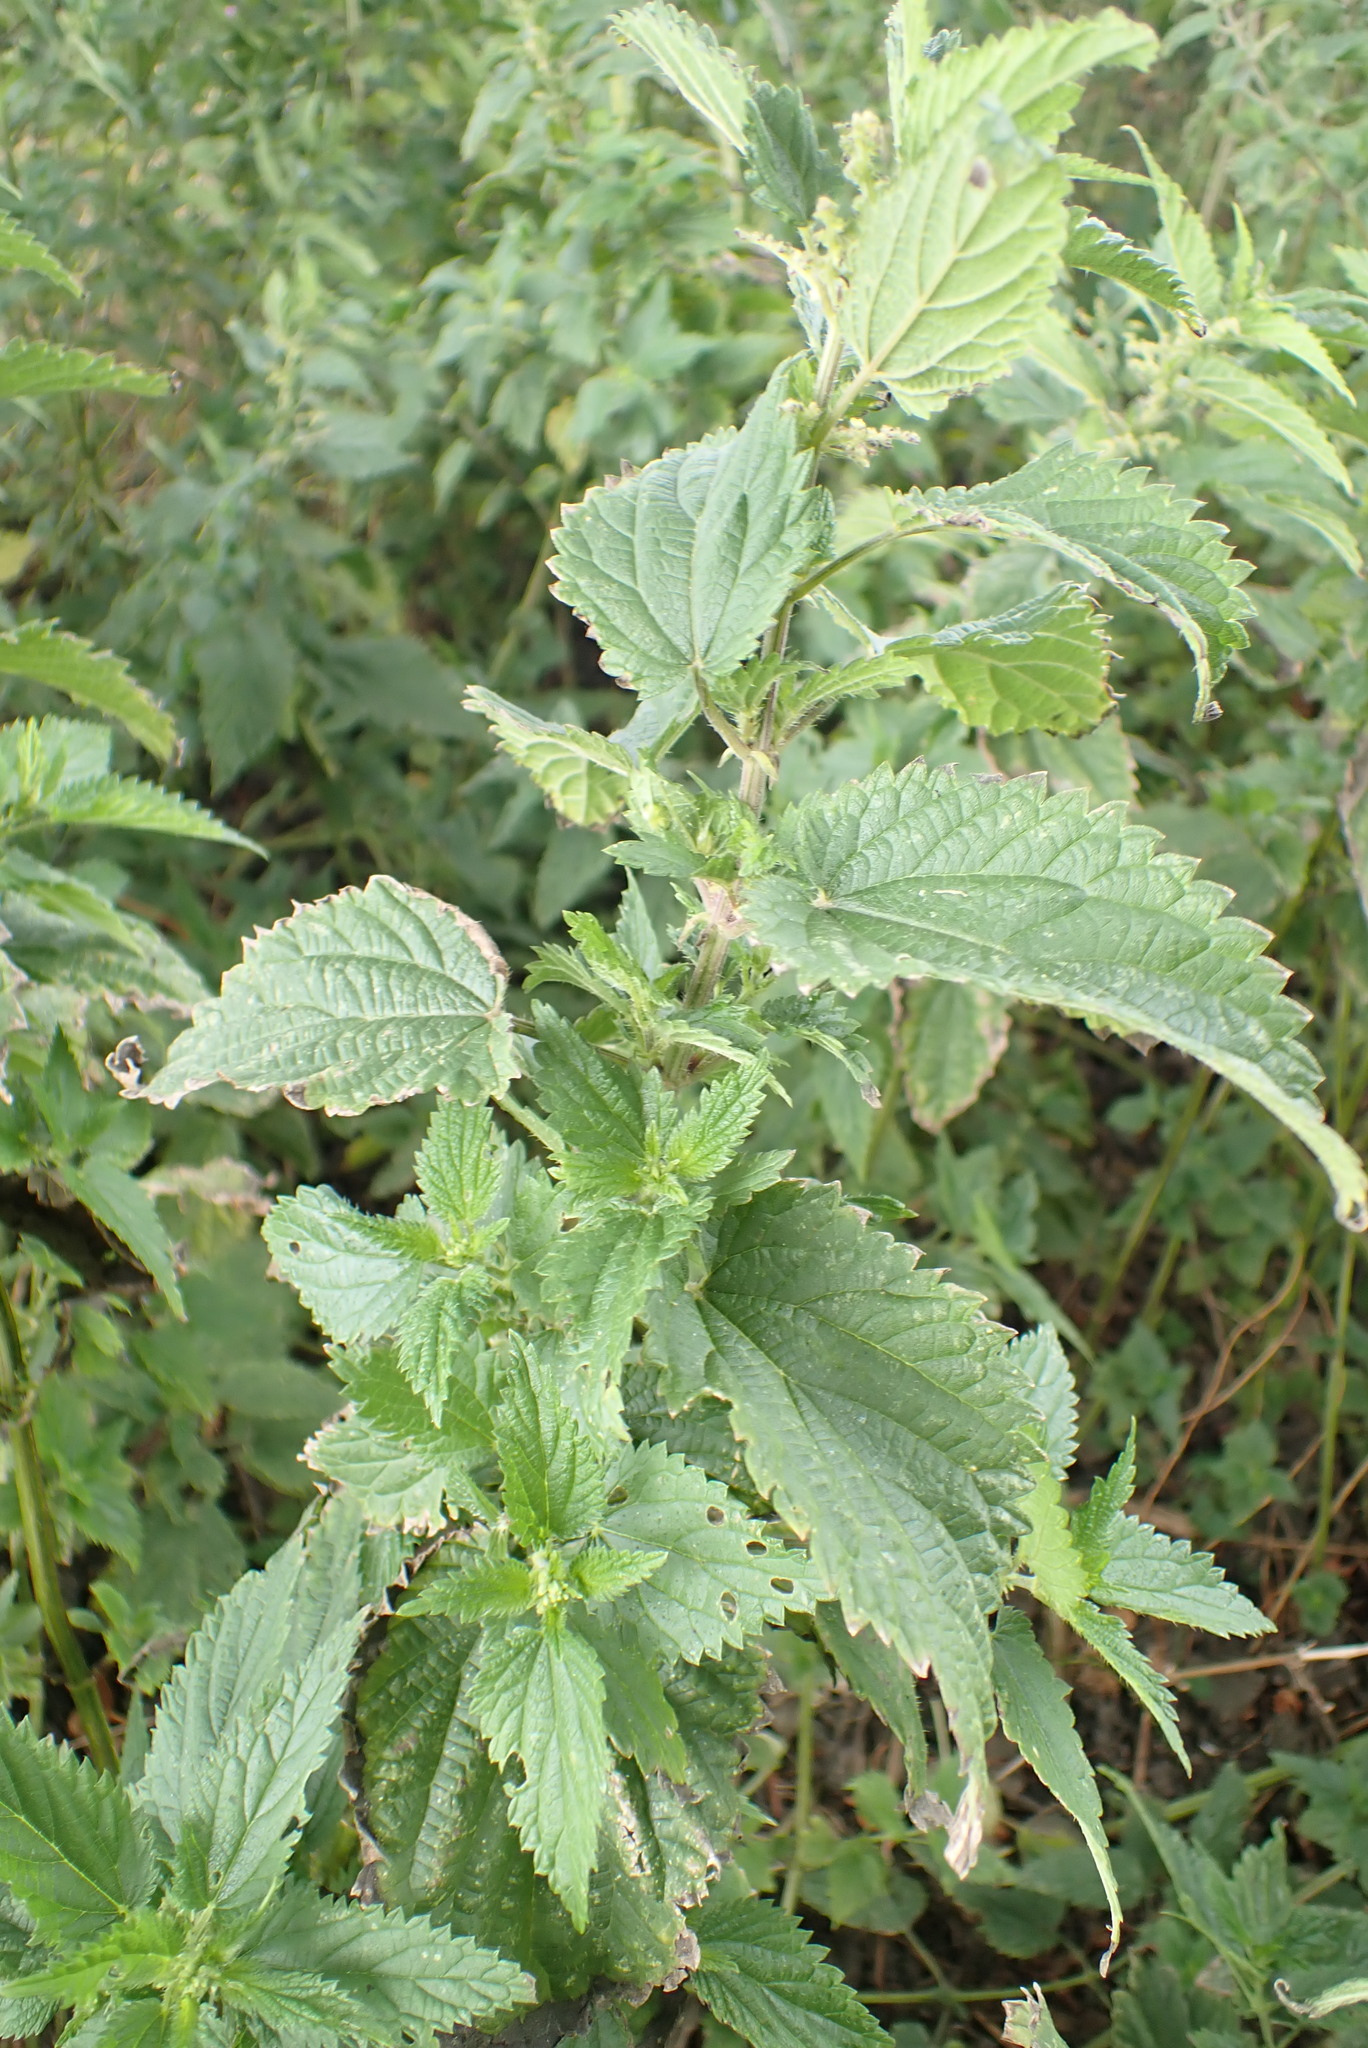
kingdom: Plantae
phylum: Tracheophyta
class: Magnoliopsida
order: Rosales
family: Urticaceae
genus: Urtica
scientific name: Urtica dioica
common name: Common nettle
